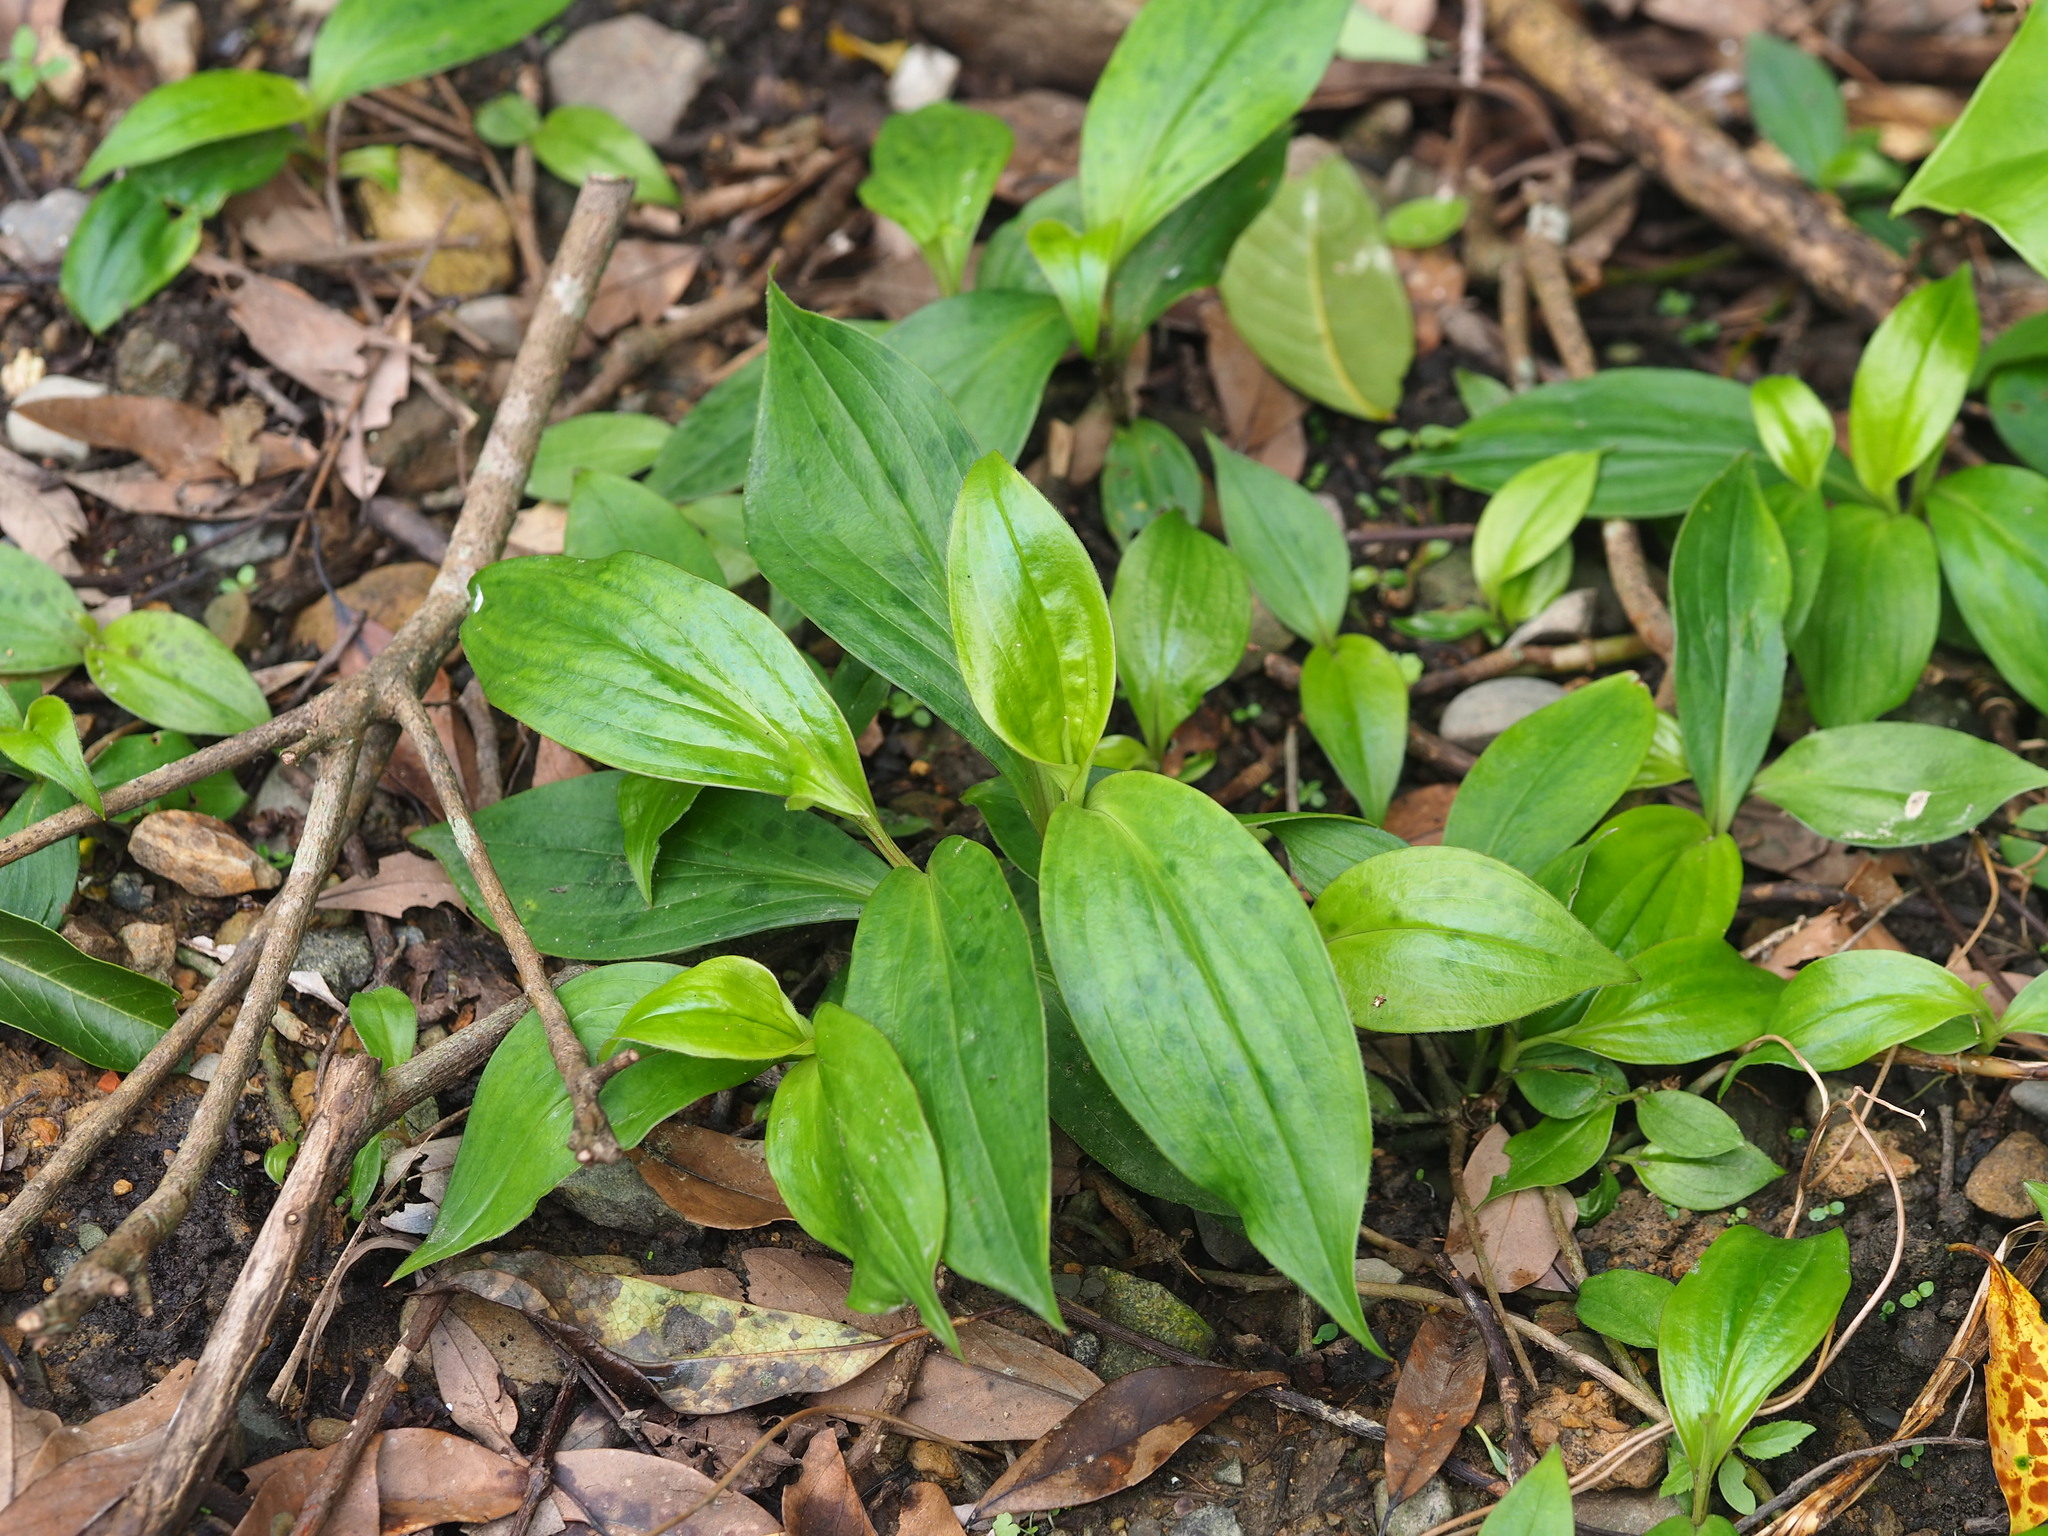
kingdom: Plantae
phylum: Tracheophyta
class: Liliopsida
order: Liliales
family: Liliaceae
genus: Tricyrtis
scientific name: Tricyrtis formosana
